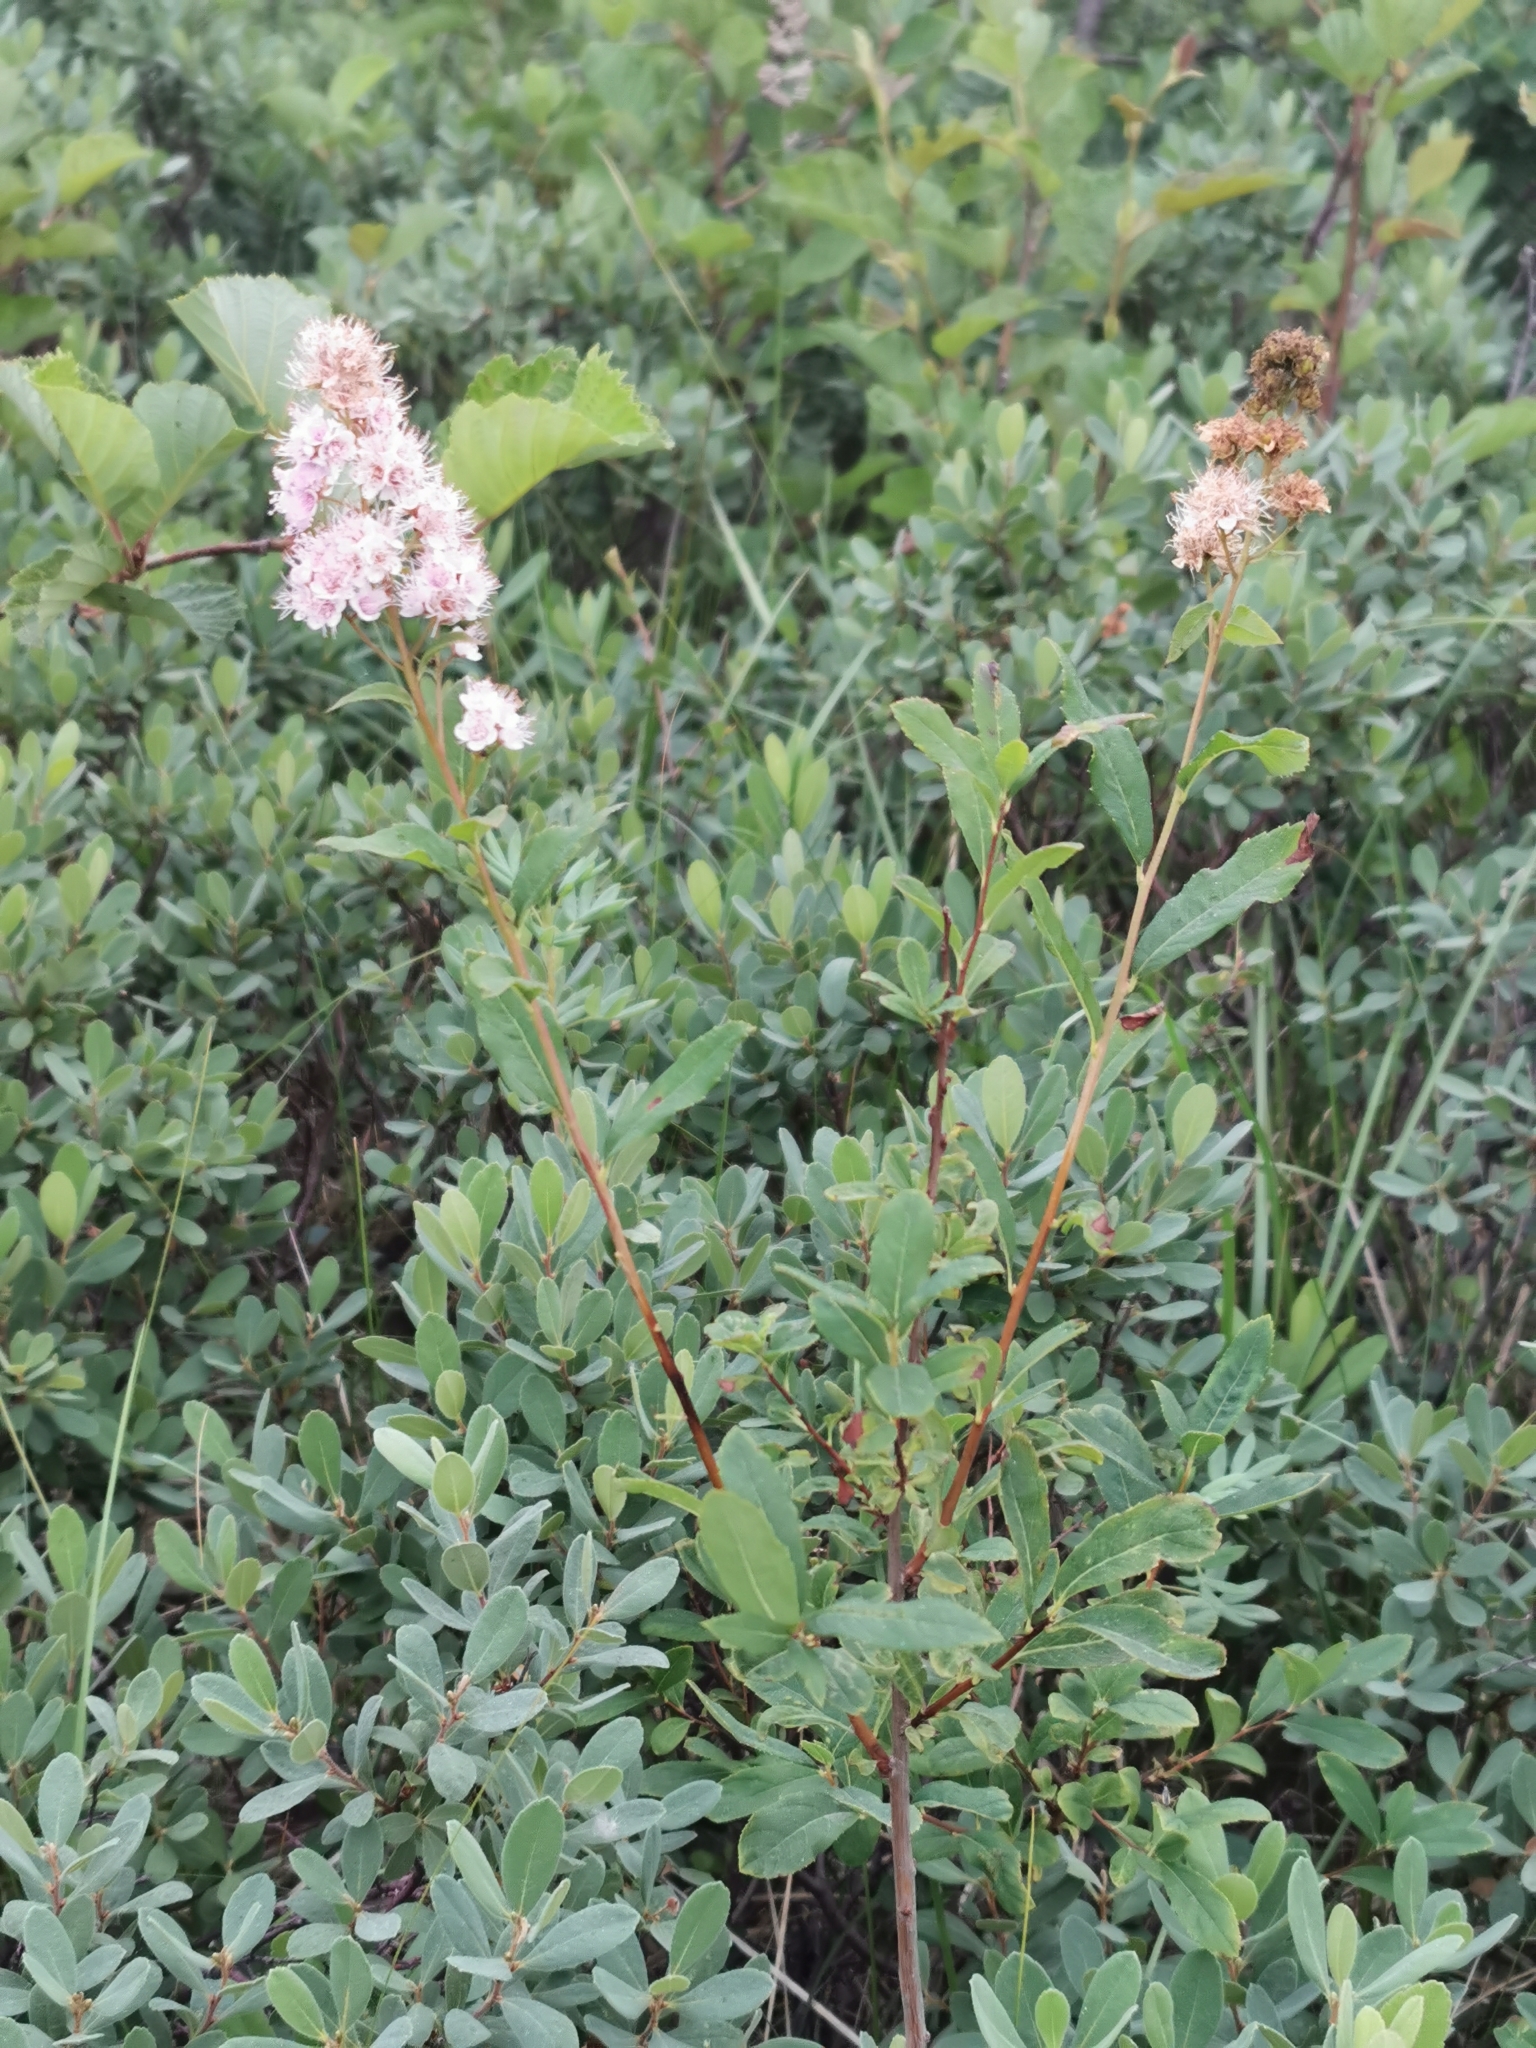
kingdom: Plantae
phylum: Tracheophyta
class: Magnoliopsida
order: Rosales
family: Rosaceae
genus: Spiraea
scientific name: Spiraea salicifolia
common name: Bridewort
